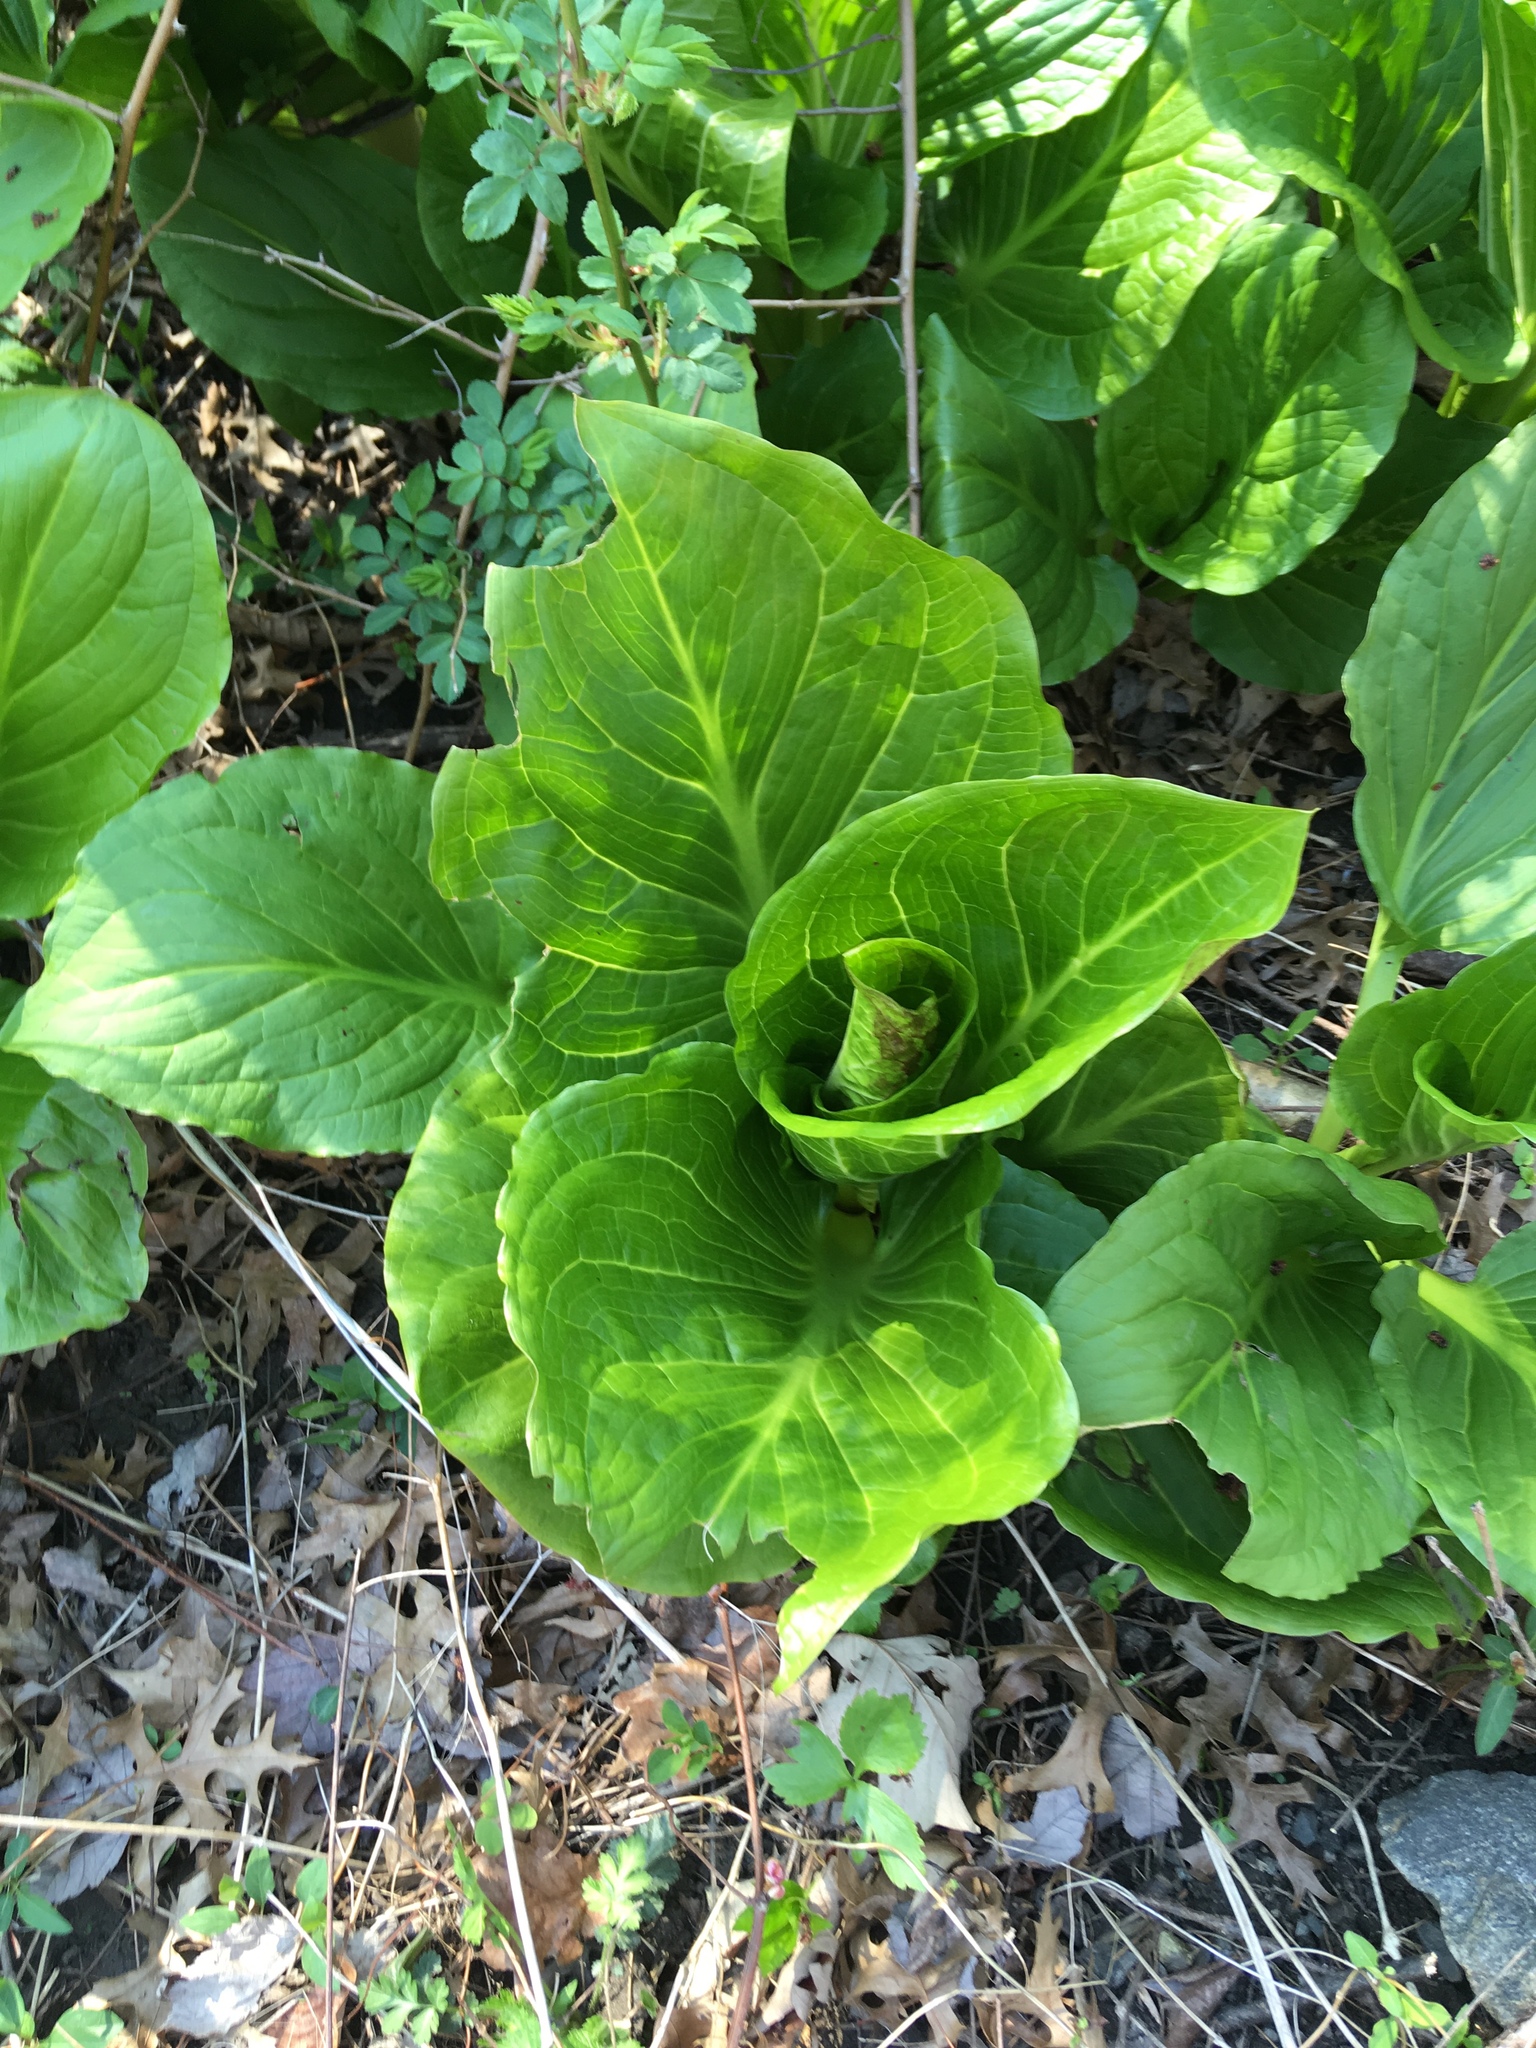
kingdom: Plantae
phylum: Tracheophyta
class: Liliopsida
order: Alismatales
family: Araceae
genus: Symplocarpus
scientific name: Symplocarpus foetidus
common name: Eastern skunk cabbage
